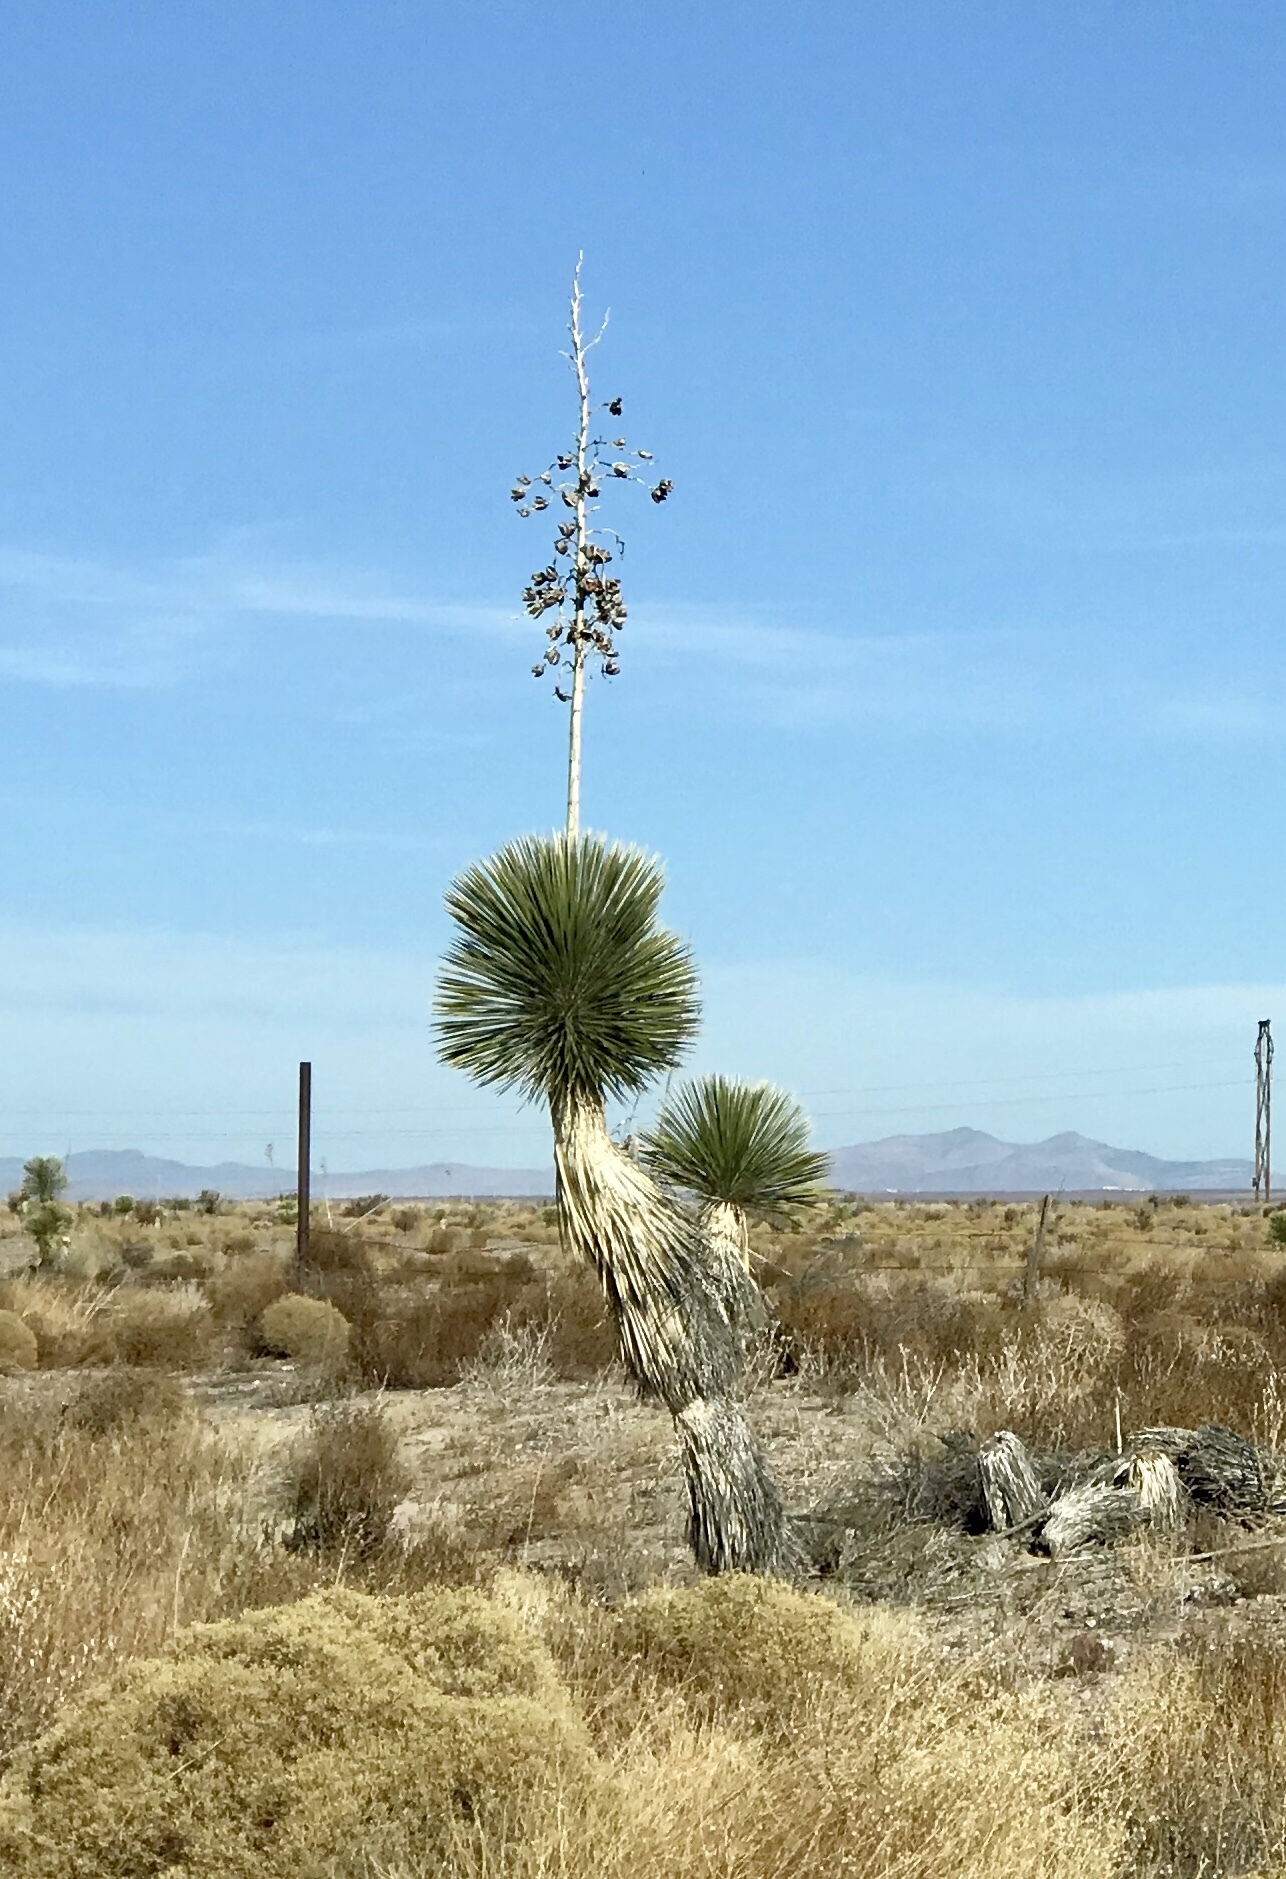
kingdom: Plantae
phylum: Tracheophyta
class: Liliopsida
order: Asparagales
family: Asparagaceae
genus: Yucca
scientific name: Yucca elata
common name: Palmella
